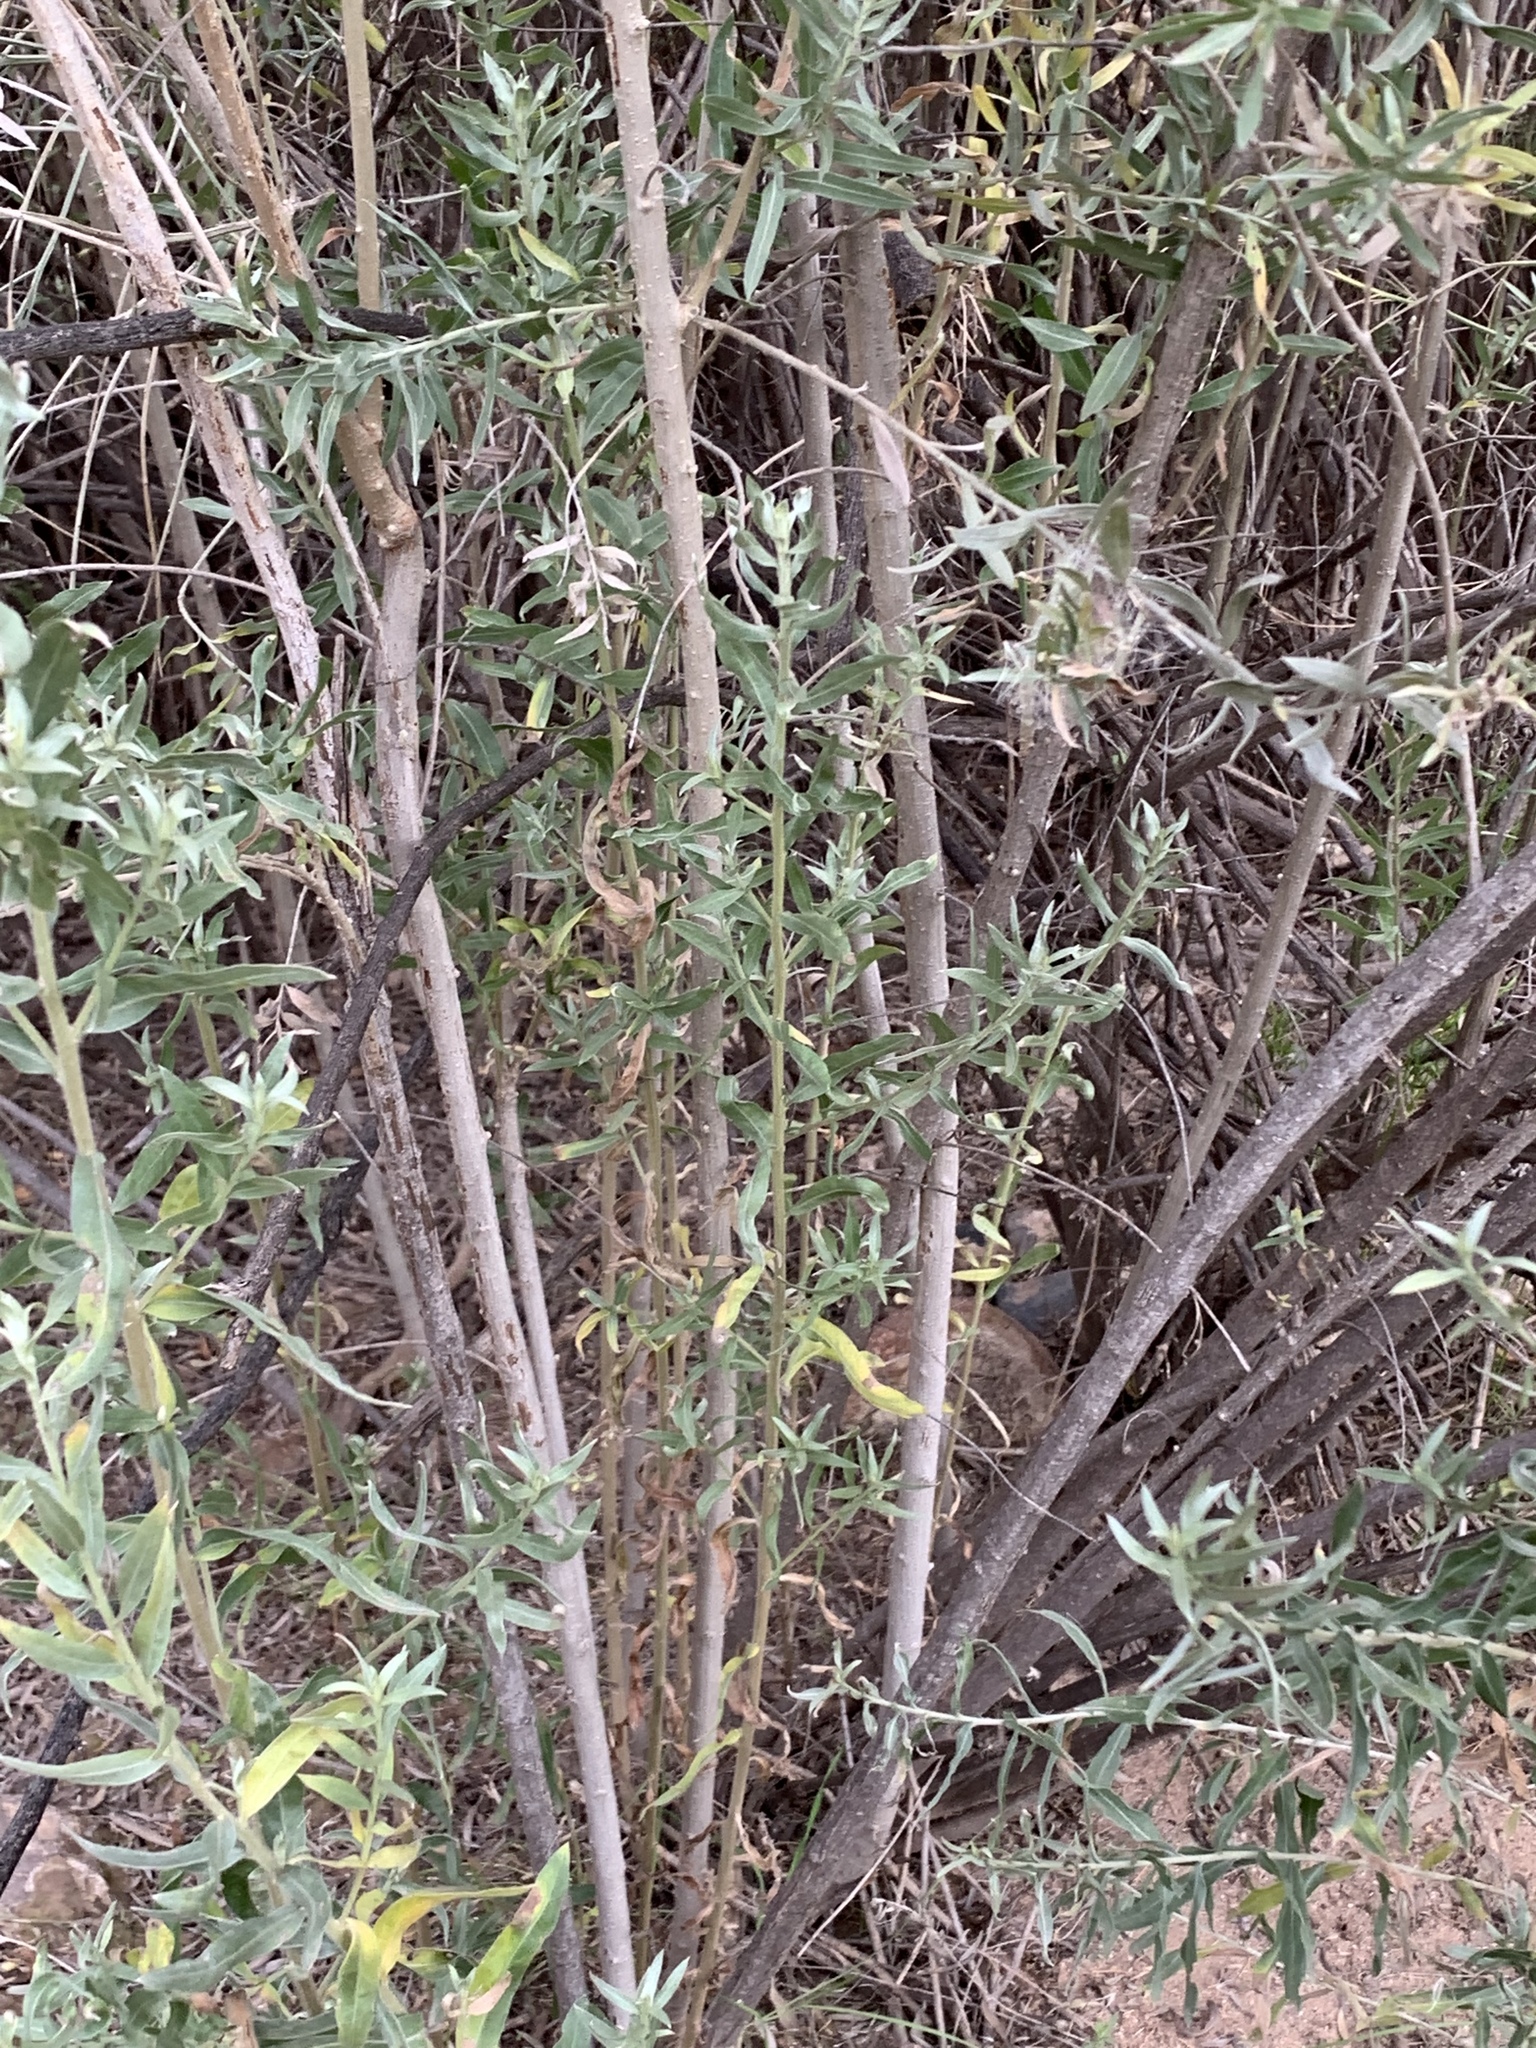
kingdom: Plantae
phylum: Tracheophyta
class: Magnoliopsida
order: Asterales
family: Asteraceae
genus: Pluchea
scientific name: Pluchea sericea
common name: Arrow-weed
